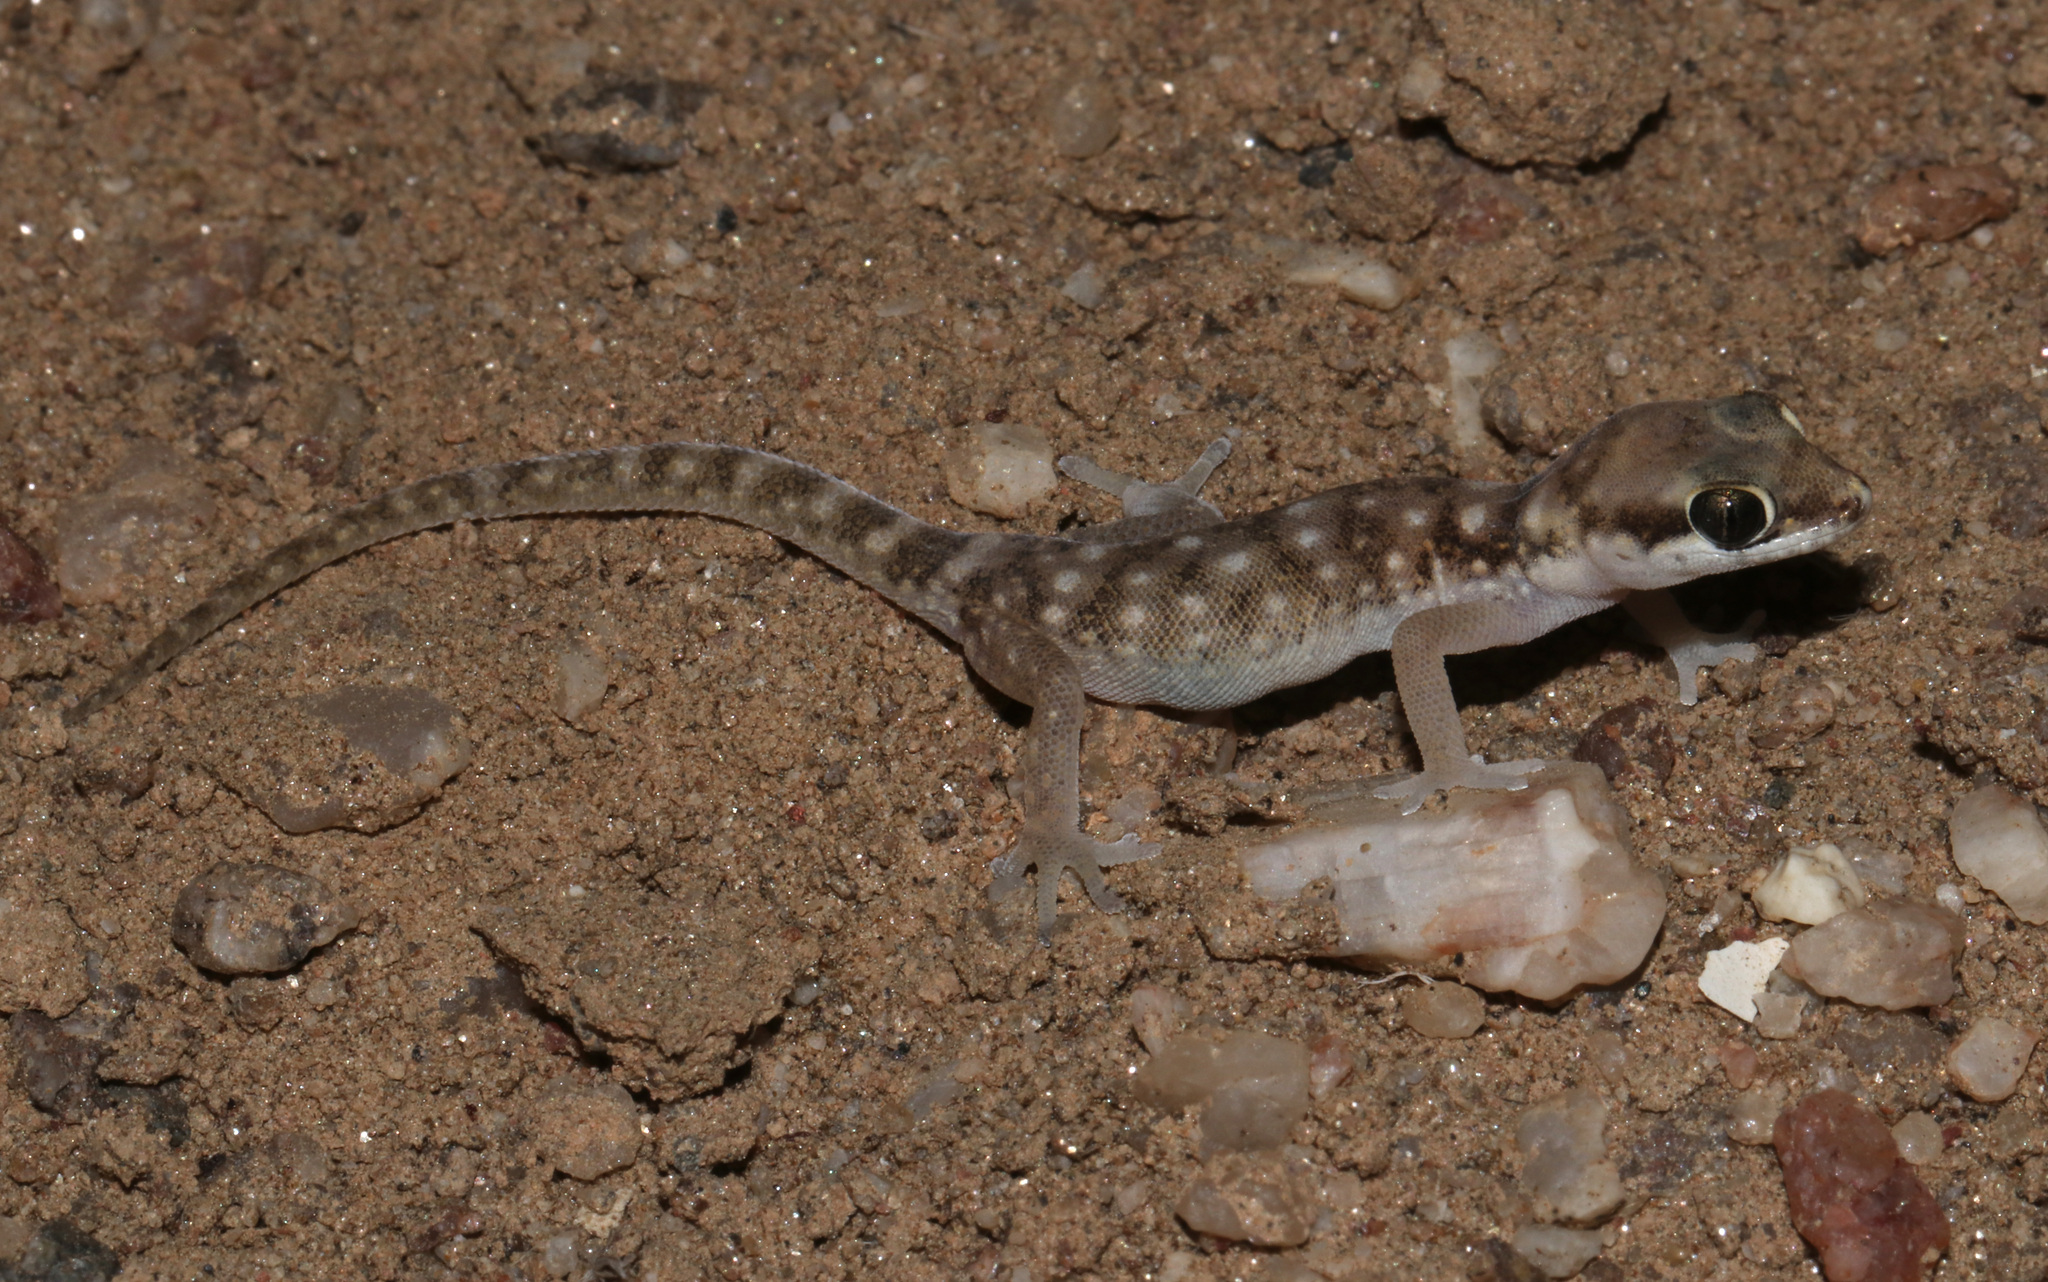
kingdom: Animalia
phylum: Chordata
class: Squamata
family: Gekkonidae
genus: Pachydactylus
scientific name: Pachydactylus punctatus
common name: Pointed thick-toed gecko
